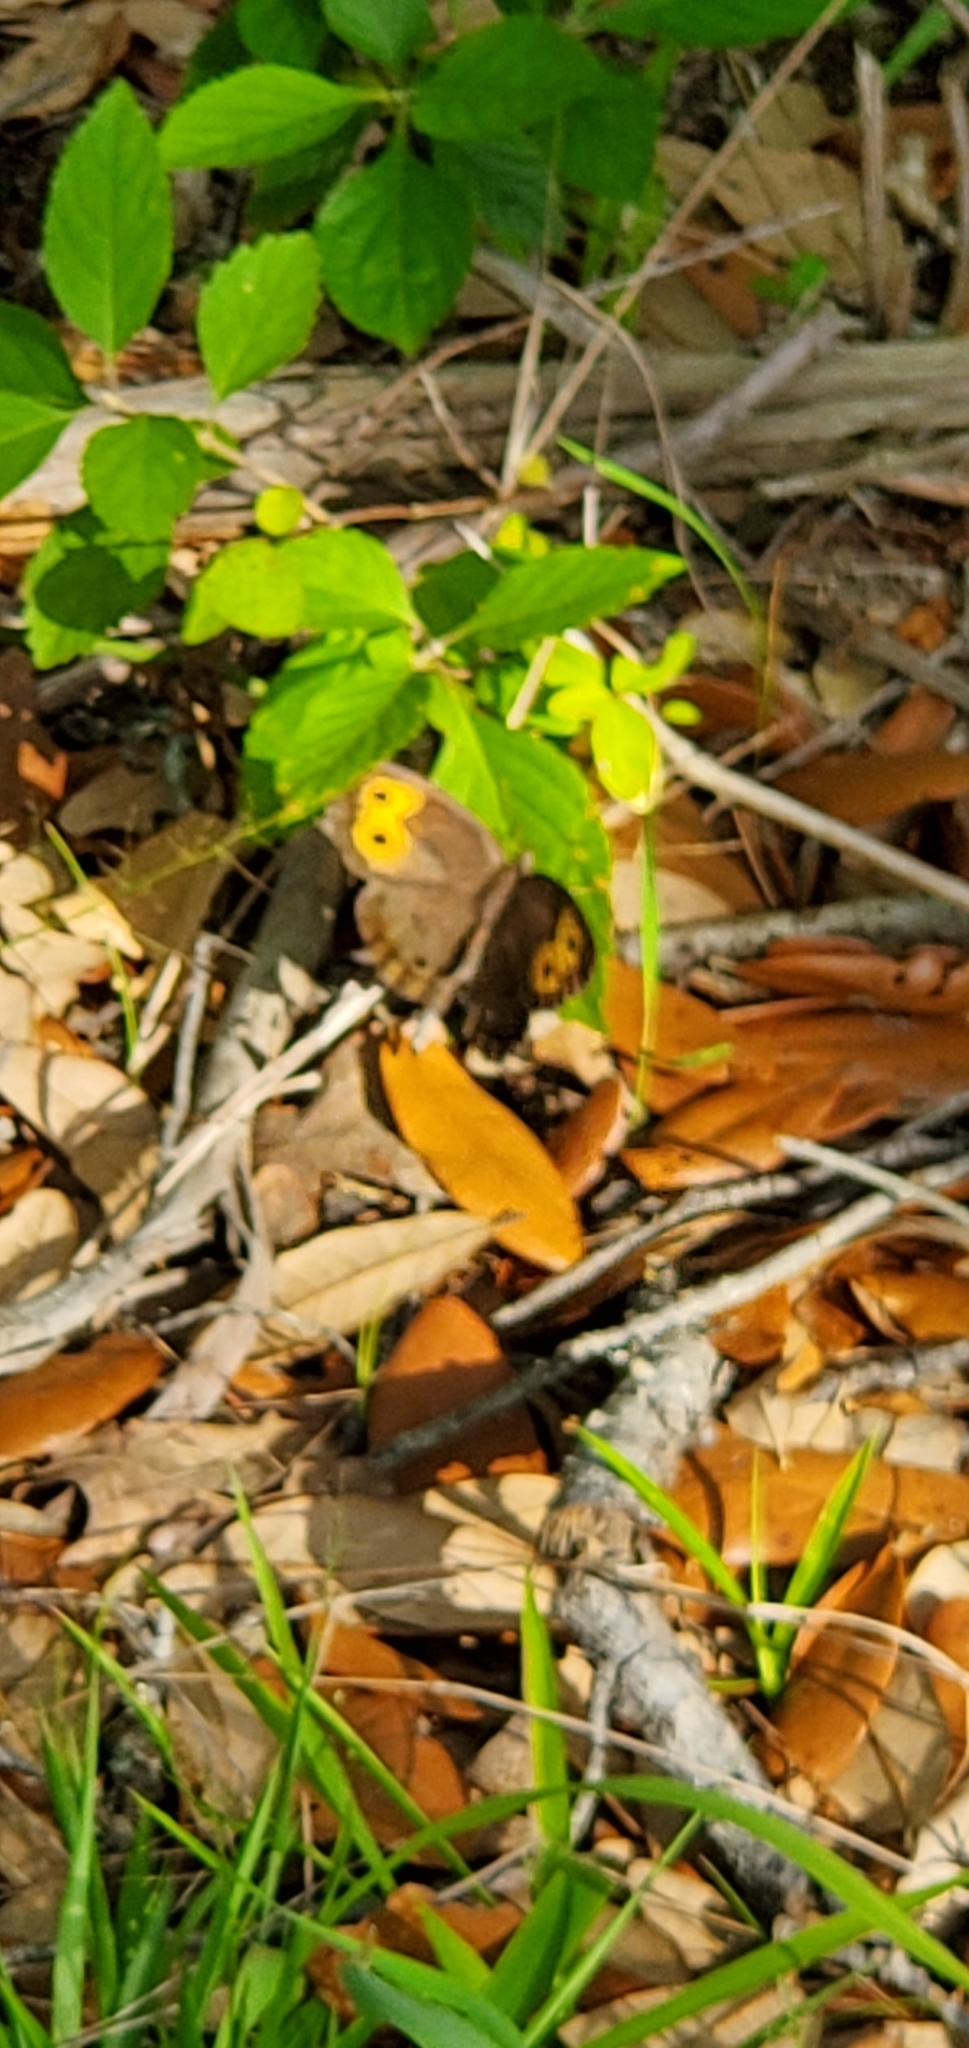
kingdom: Animalia
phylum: Arthropoda
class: Insecta
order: Lepidoptera
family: Nymphalidae
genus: Cercyonis
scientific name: Cercyonis pegala
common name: Common wood-nymph
